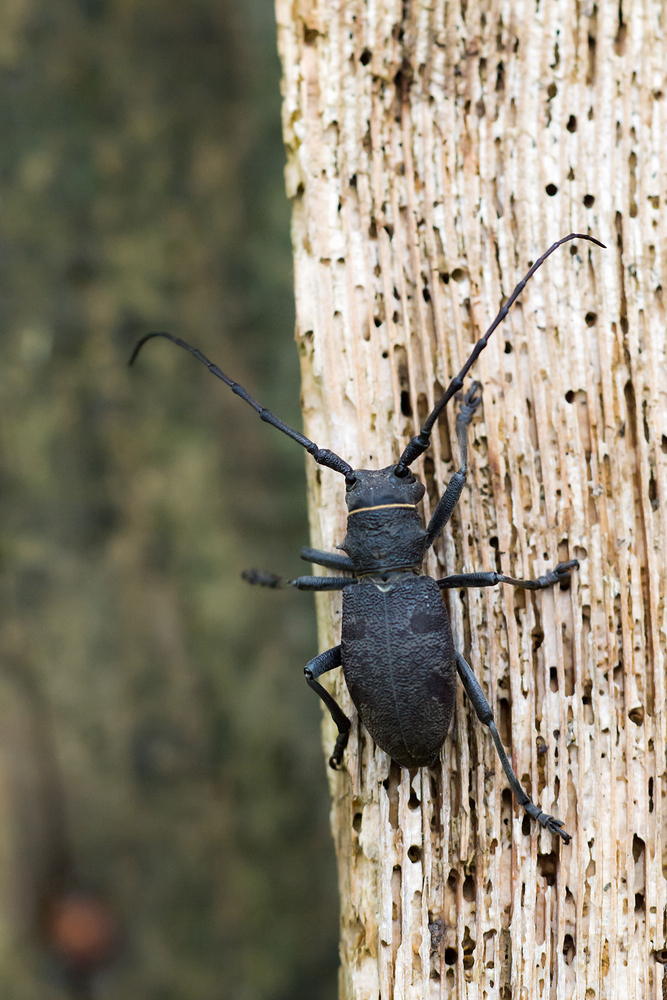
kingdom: Animalia
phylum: Arthropoda
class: Insecta
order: Coleoptera
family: Cerambycidae
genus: Morimus
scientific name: Morimus asper
